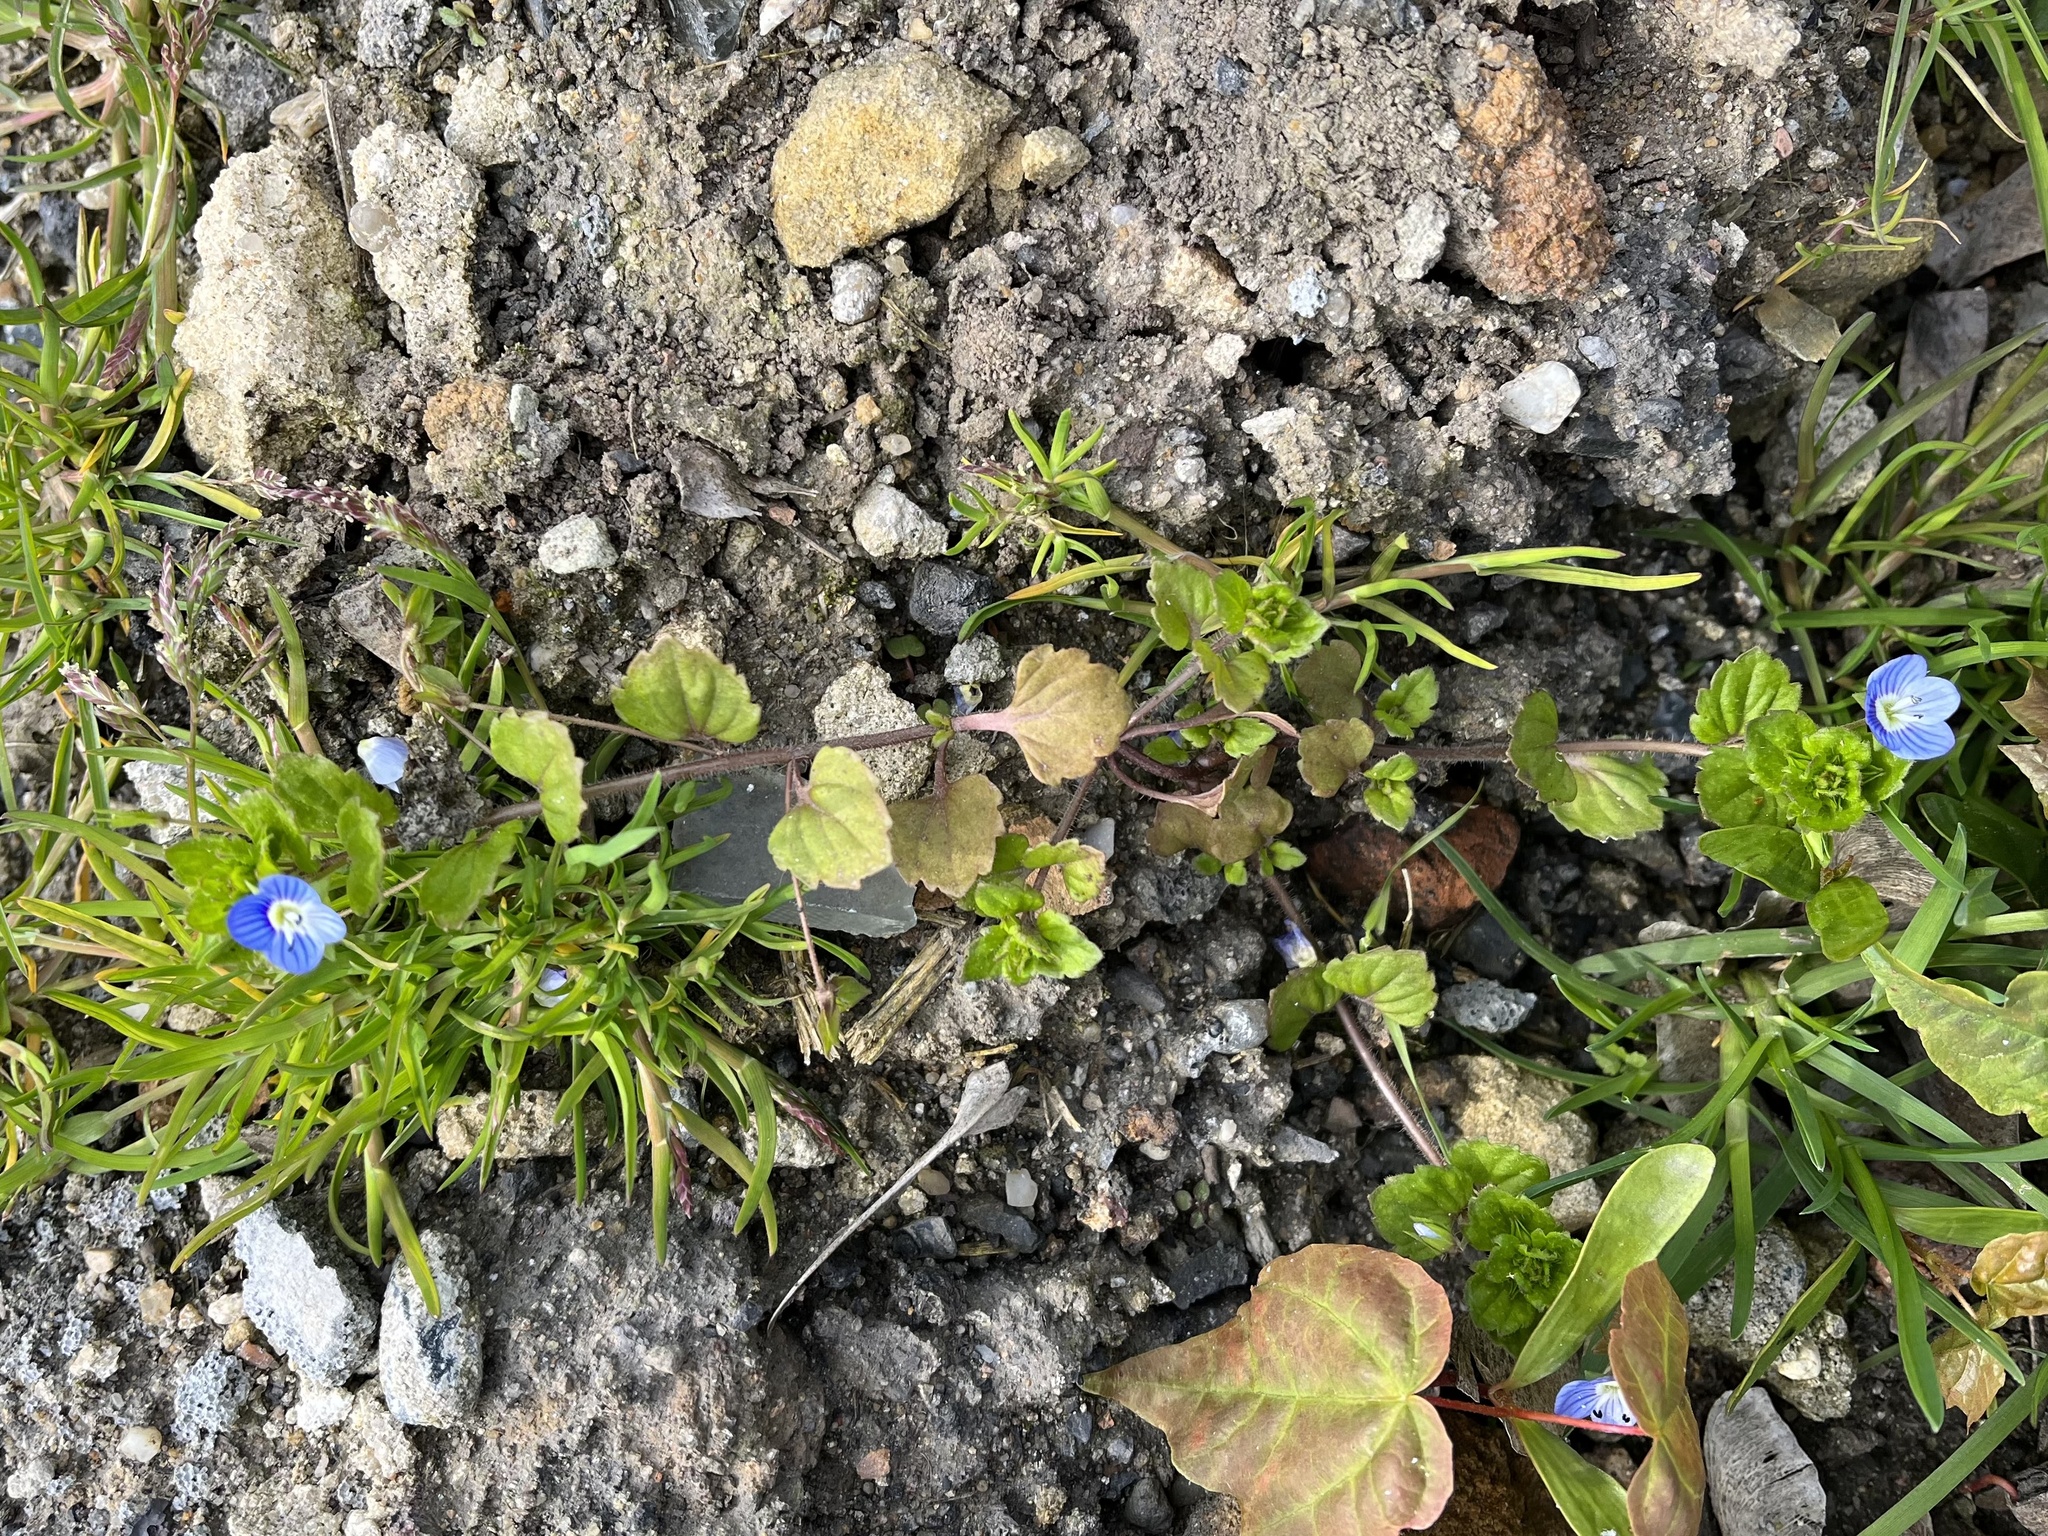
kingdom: Plantae
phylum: Tracheophyta
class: Magnoliopsida
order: Lamiales
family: Plantaginaceae
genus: Veronica
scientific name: Veronica persica
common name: Common field-speedwell
